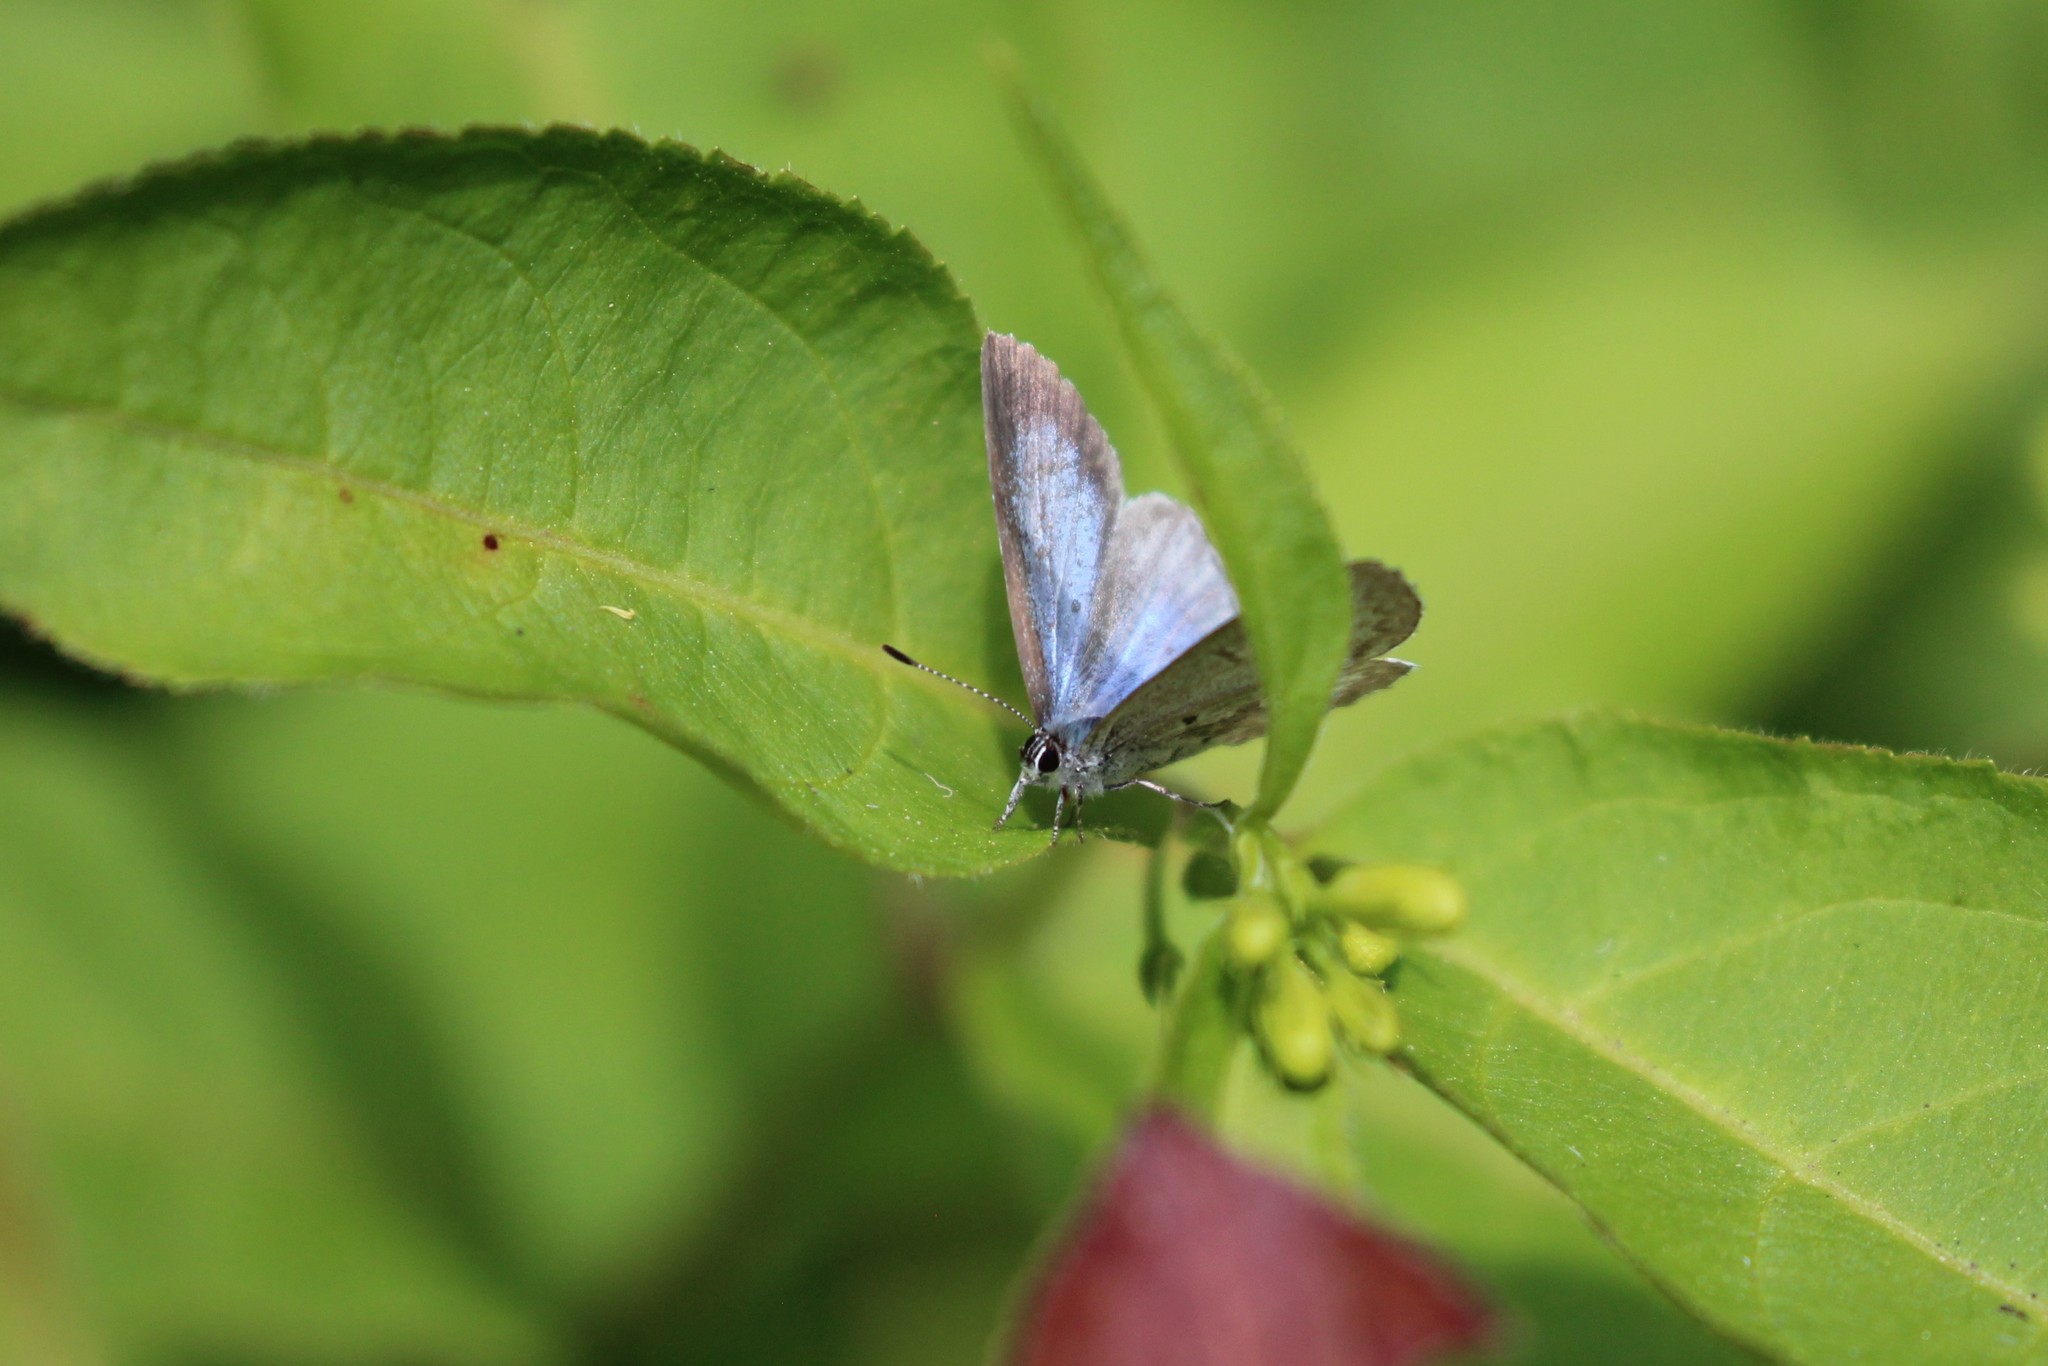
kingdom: Animalia
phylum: Arthropoda
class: Insecta
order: Lepidoptera
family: Lycaenidae
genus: Celastrina
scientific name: Celastrina lucia
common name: Lucia azure
